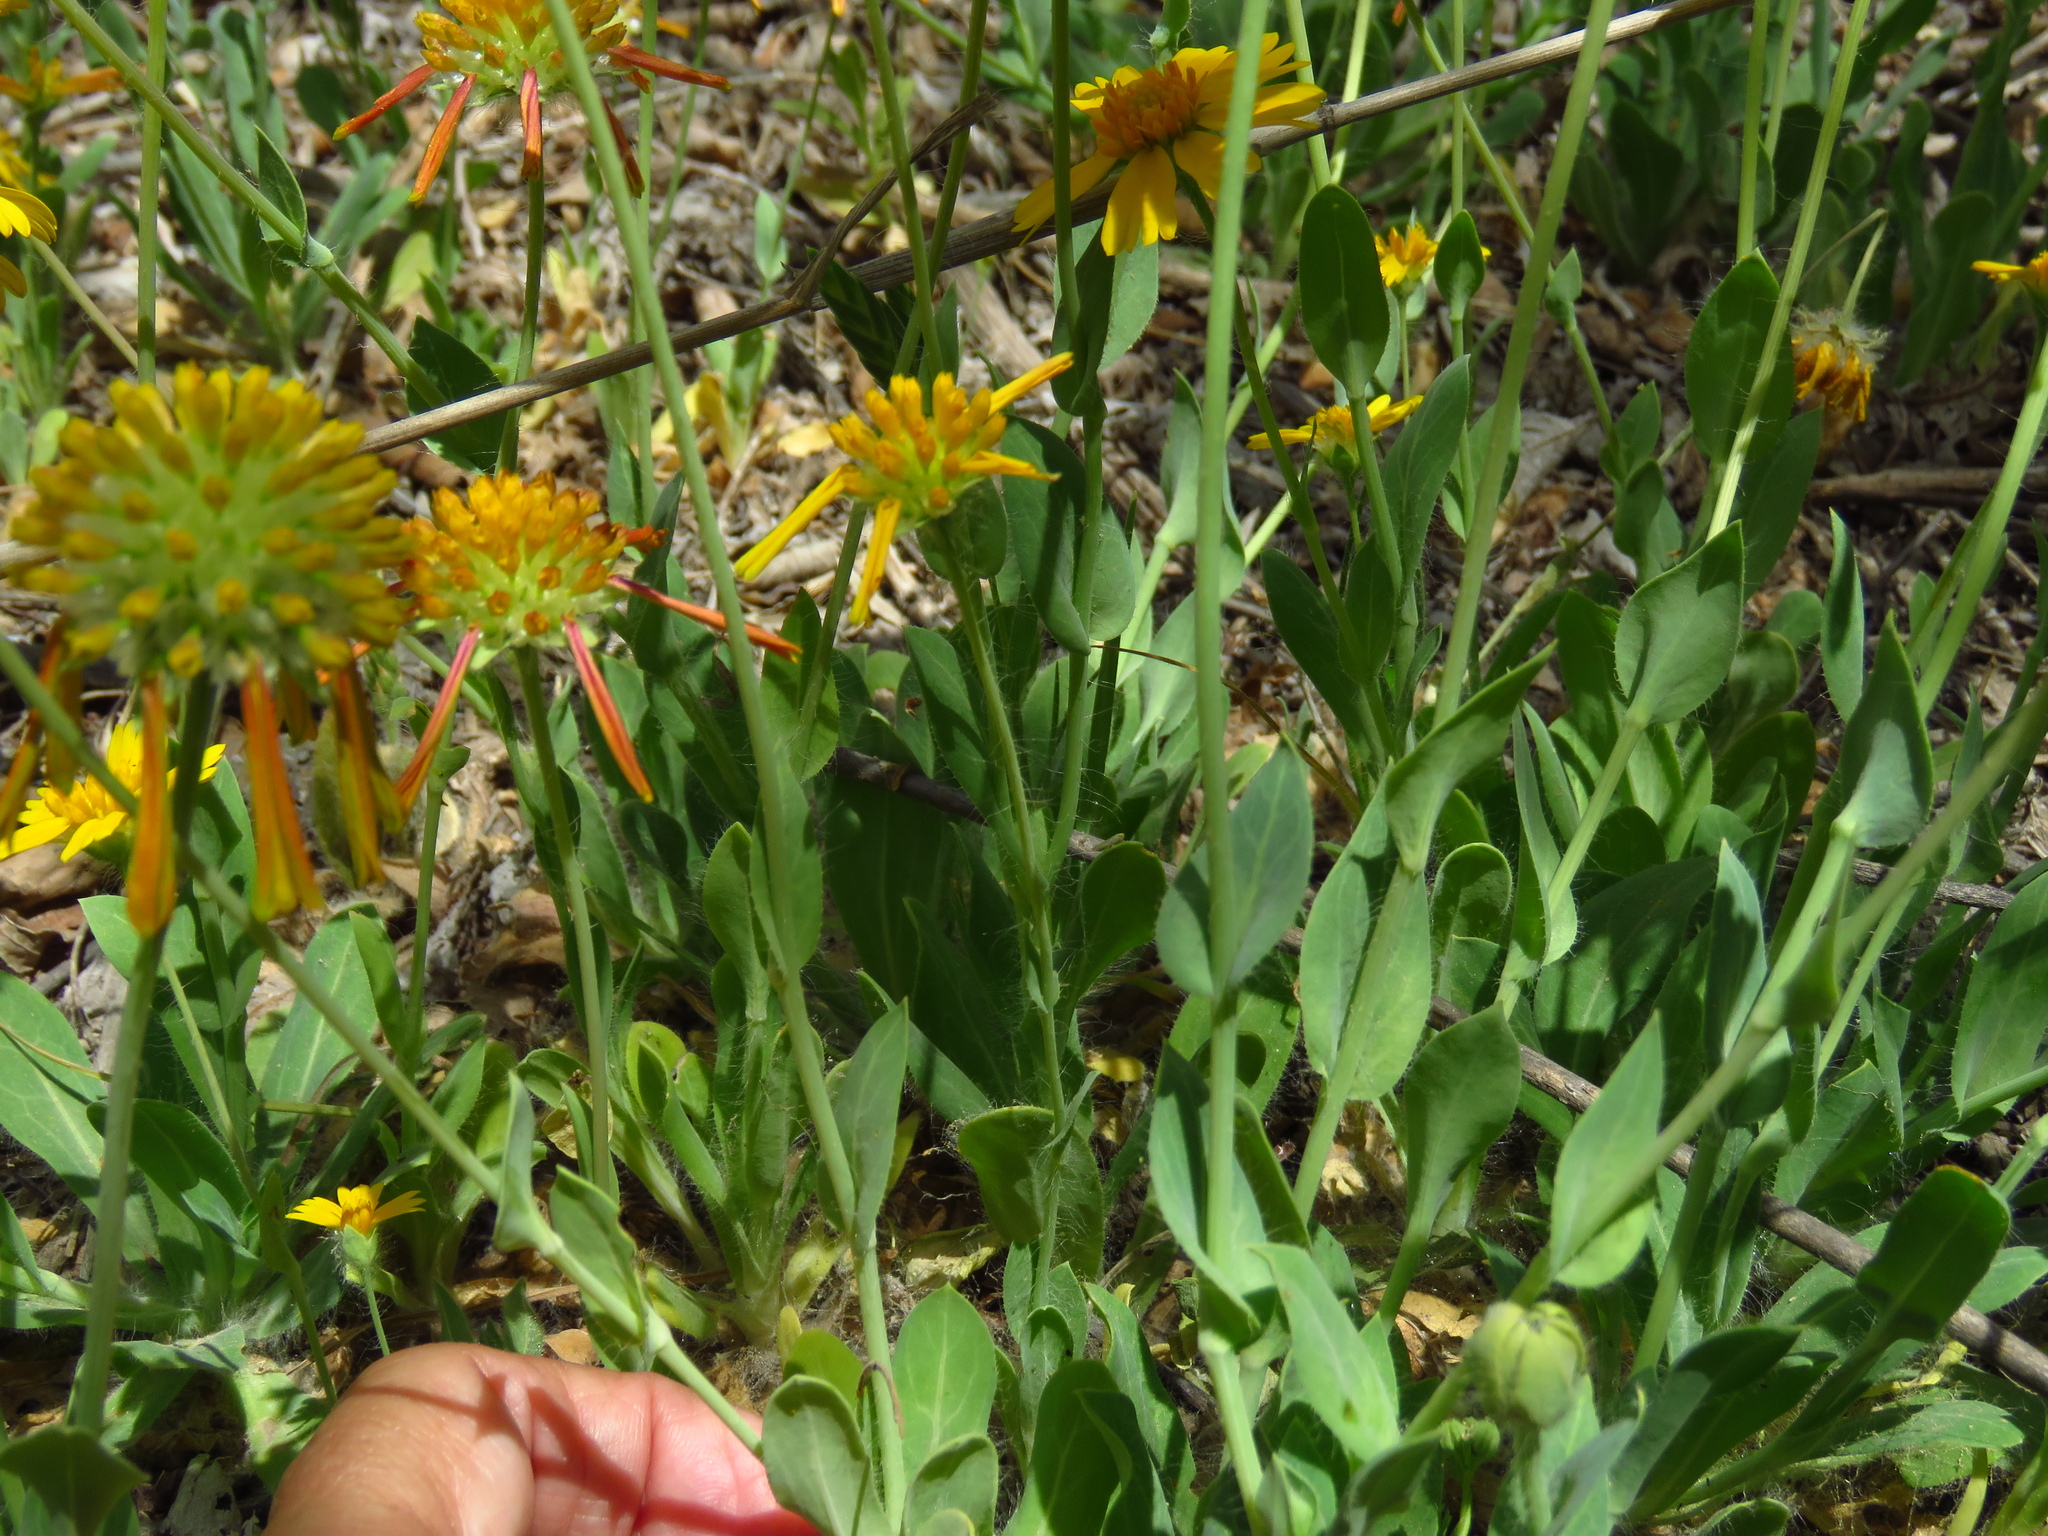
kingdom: Plantae
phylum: Tracheophyta
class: Magnoliopsida
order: Asterales
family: Asteraceae
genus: Amblyolepis
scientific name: Amblyolepis setigera
